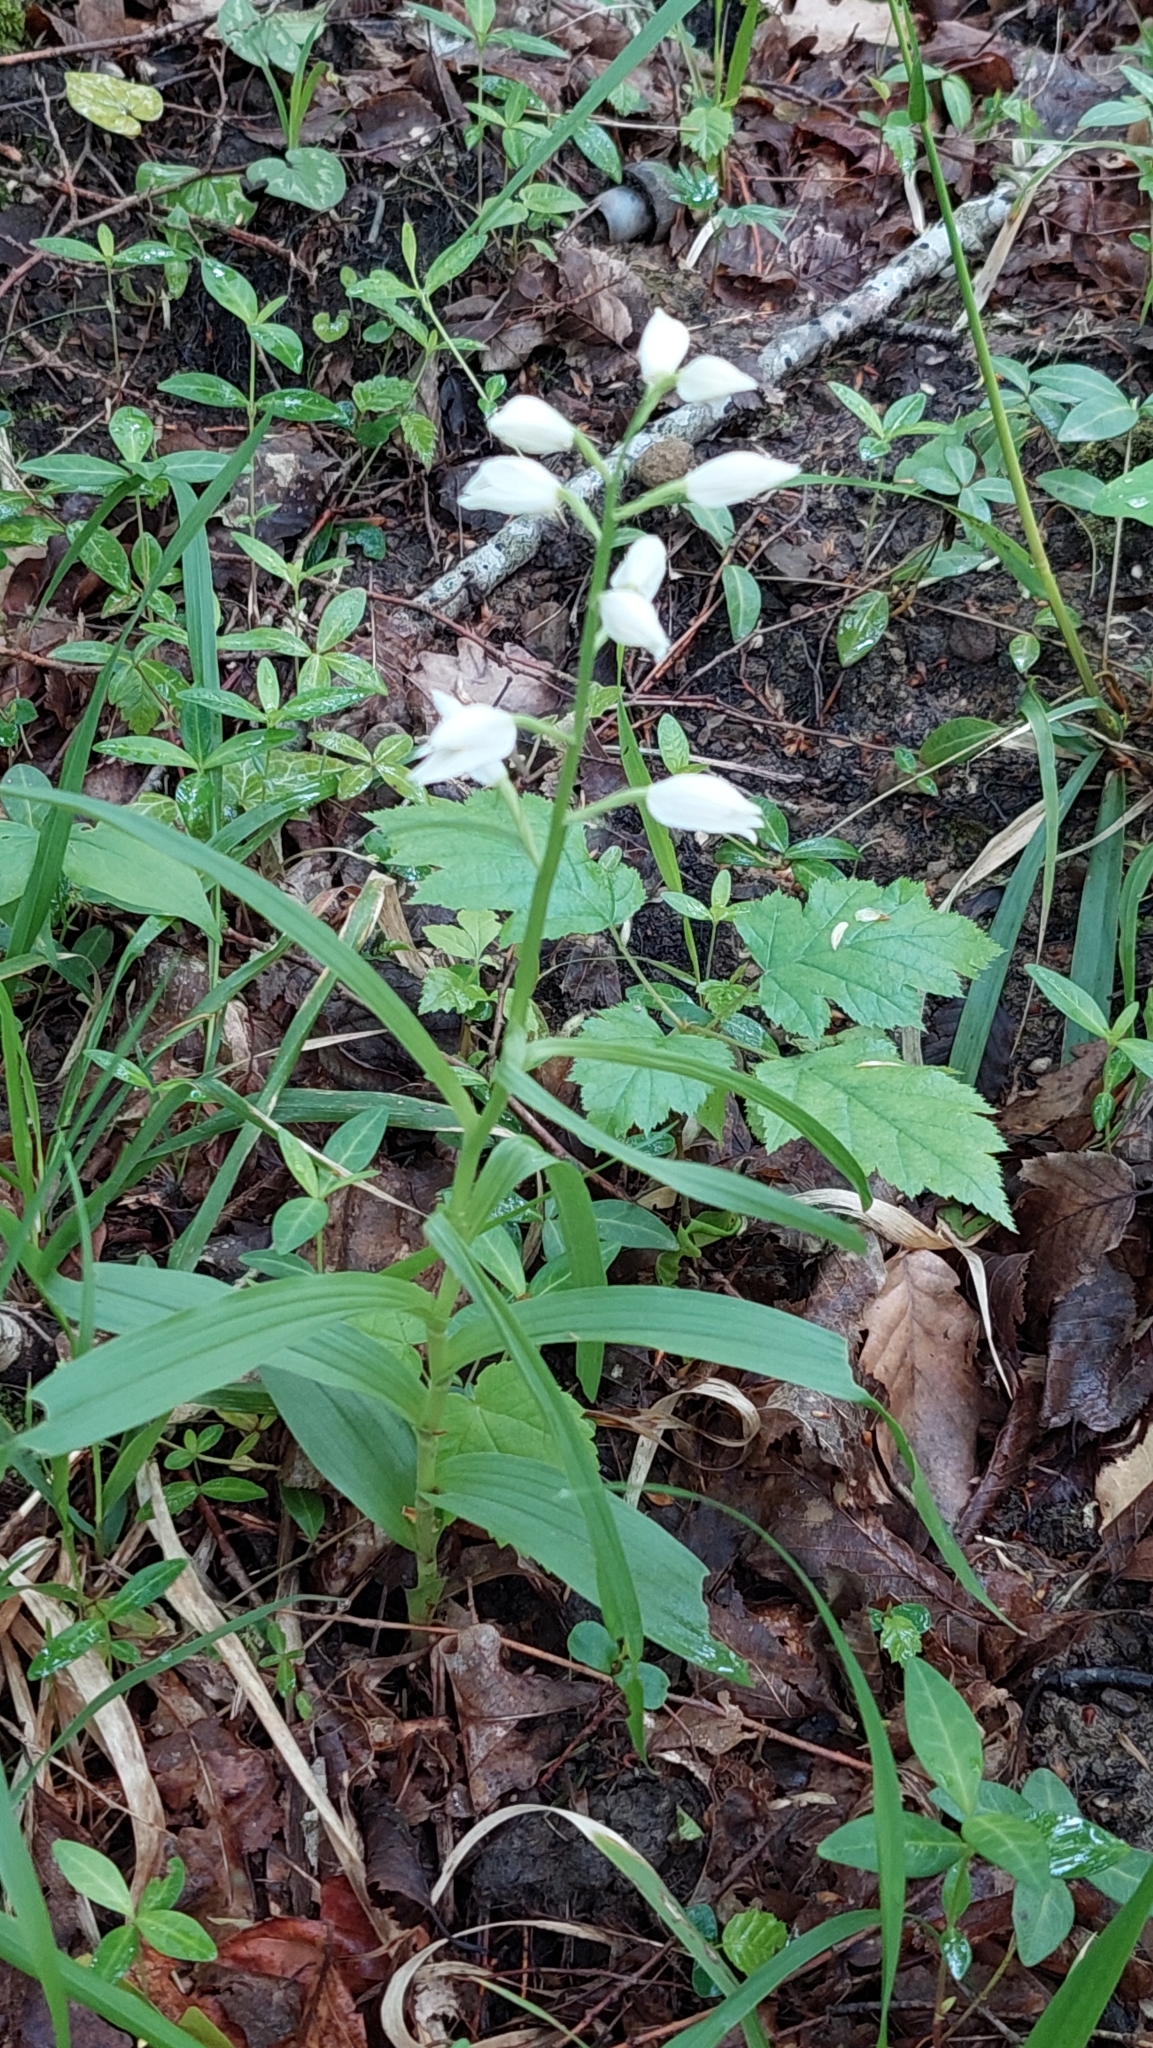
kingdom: Plantae
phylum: Tracheophyta
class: Liliopsida
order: Asparagales
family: Orchidaceae
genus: Cephalanthera
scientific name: Cephalanthera longifolia
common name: Narrow-leaved helleborine
